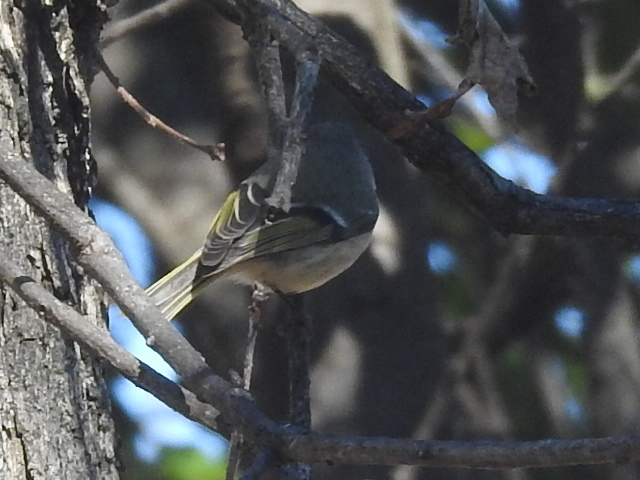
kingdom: Animalia
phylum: Chordata
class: Aves
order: Passeriformes
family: Regulidae
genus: Regulus
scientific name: Regulus calendula
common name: Ruby-crowned kinglet
